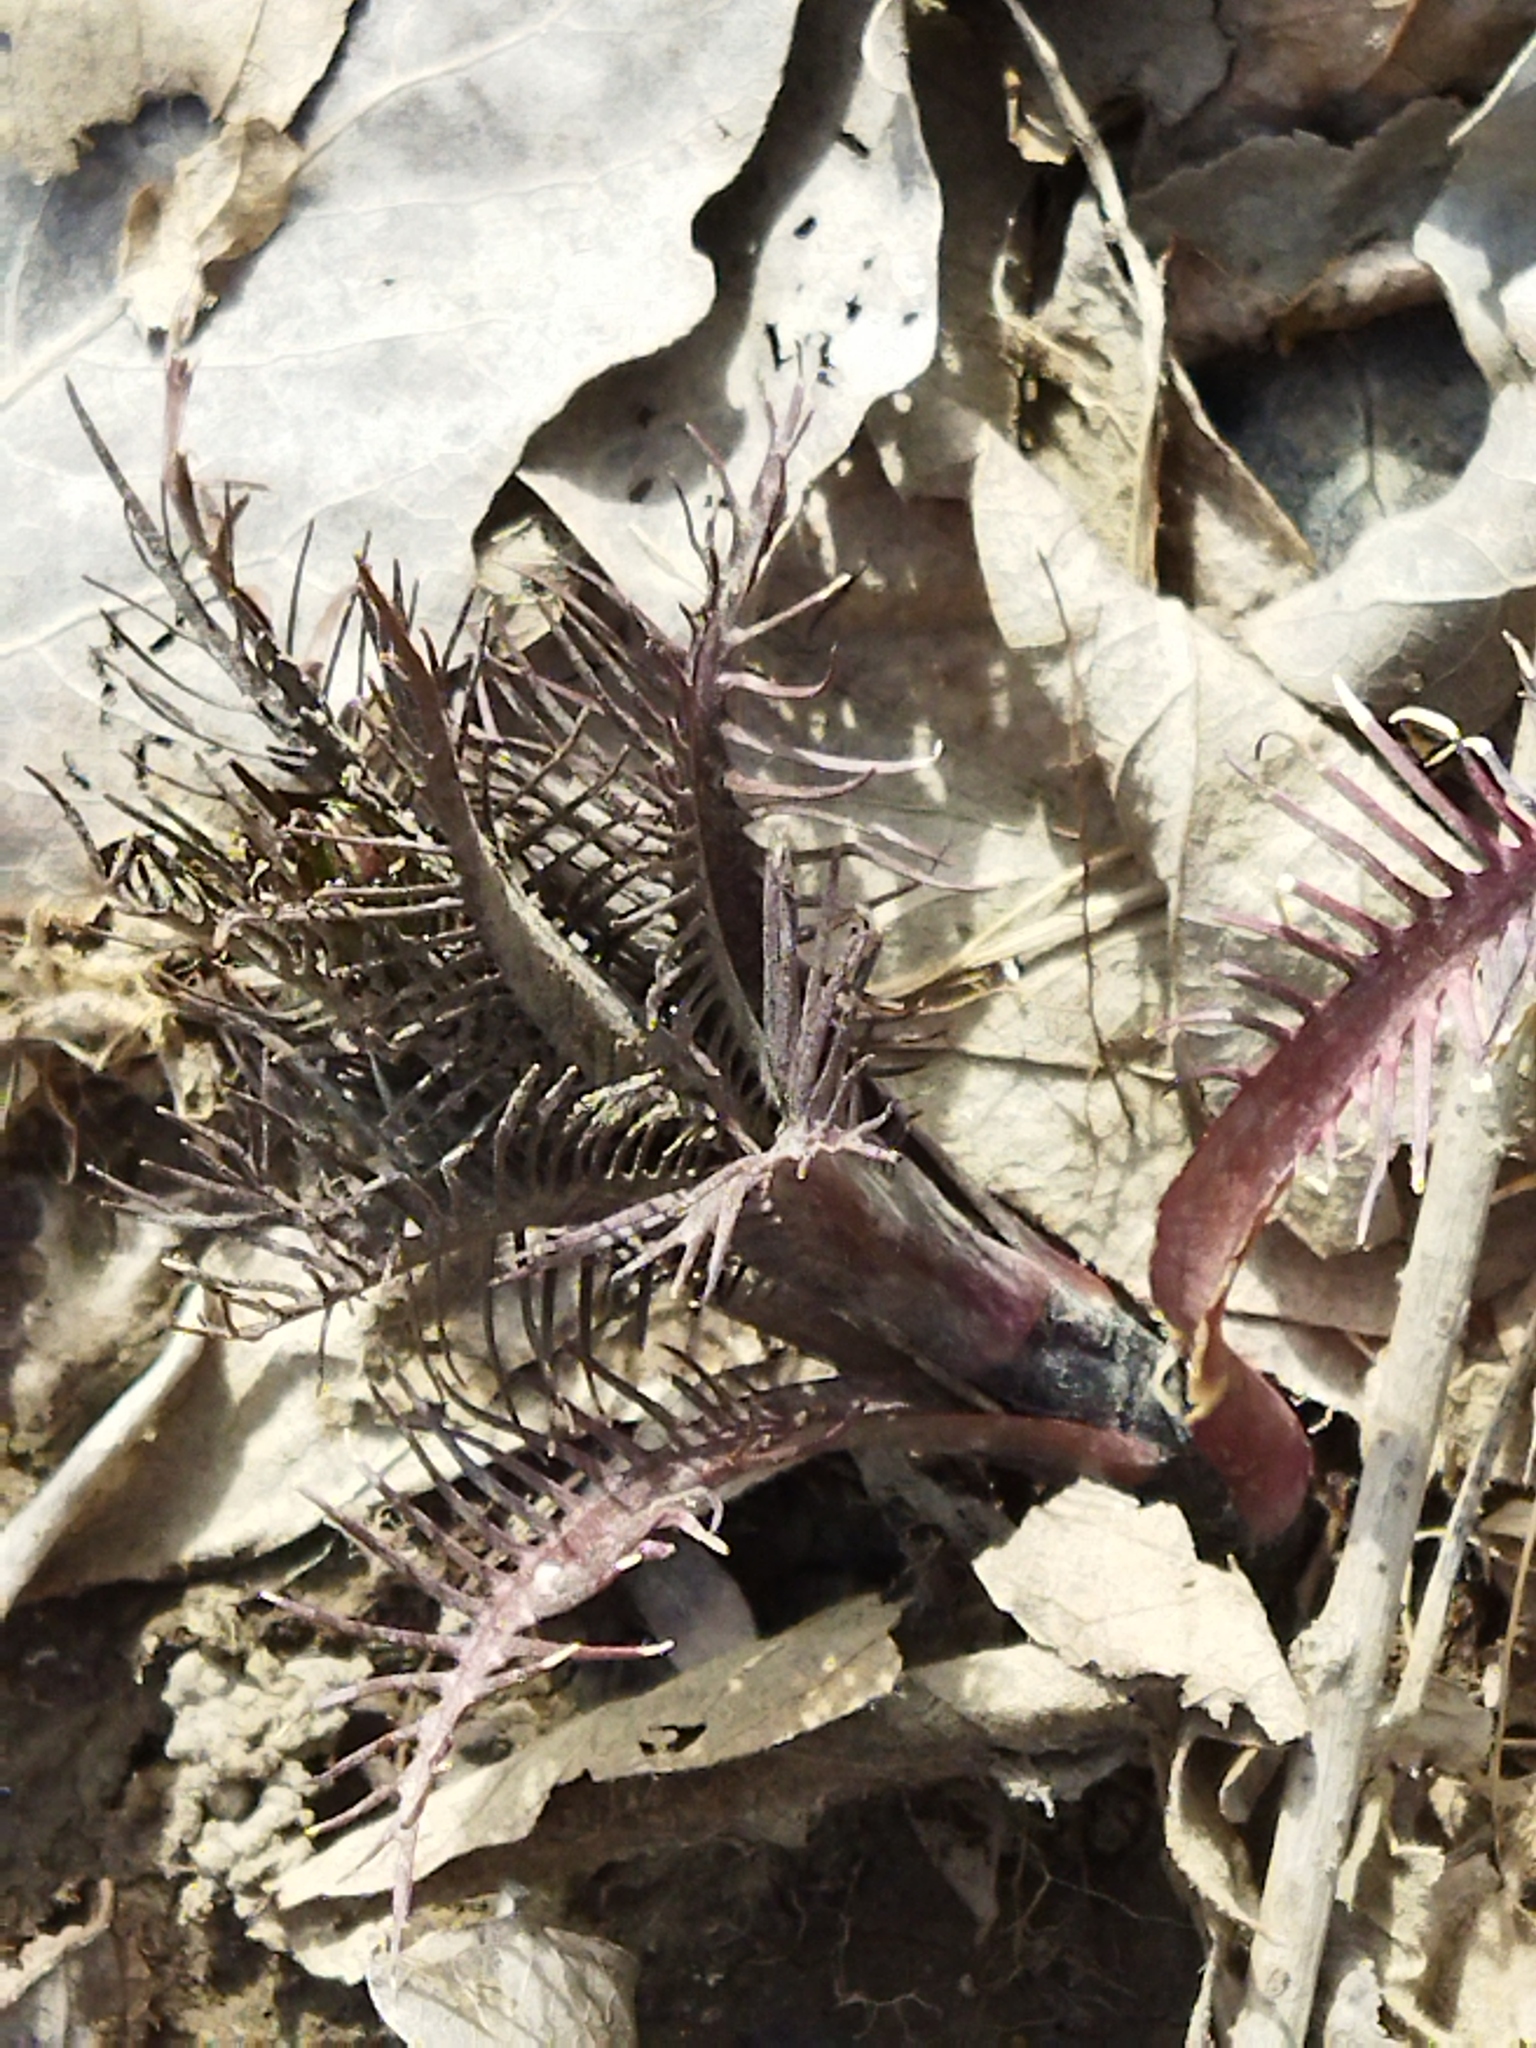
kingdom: Plantae
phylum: Tracheophyta
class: Magnoliopsida
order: Brassicales
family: Brassicaceae
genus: Rorippa
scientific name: Rorippa amphibia
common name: Great yellow-cress
